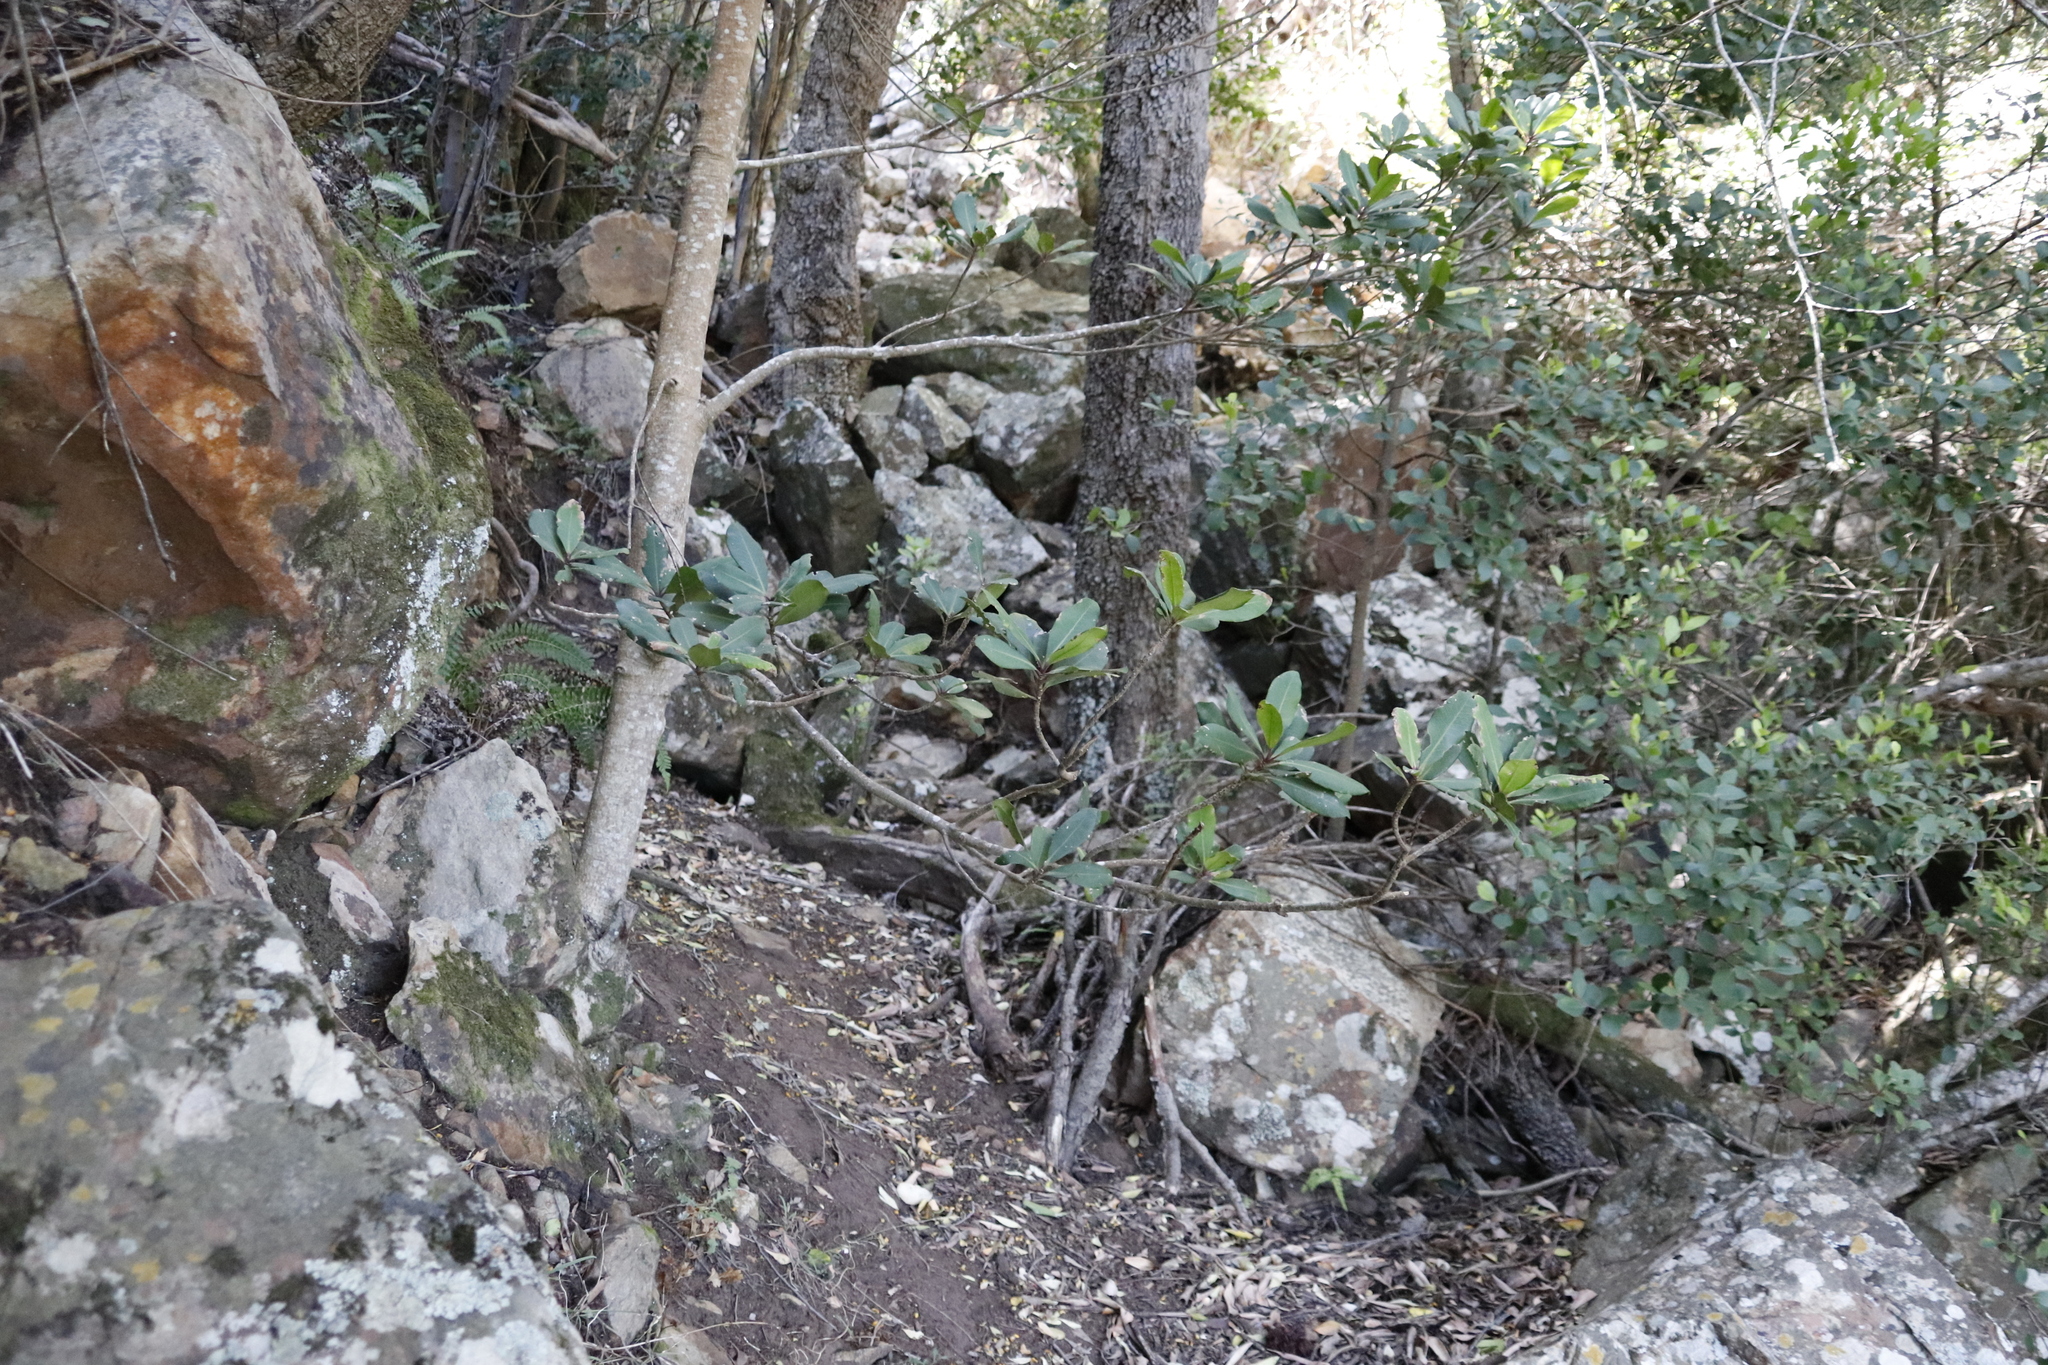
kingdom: Plantae
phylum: Tracheophyta
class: Magnoliopsida
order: Ericales
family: Primulaceae
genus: Myrsine
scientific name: Myrsine melanophloeos
